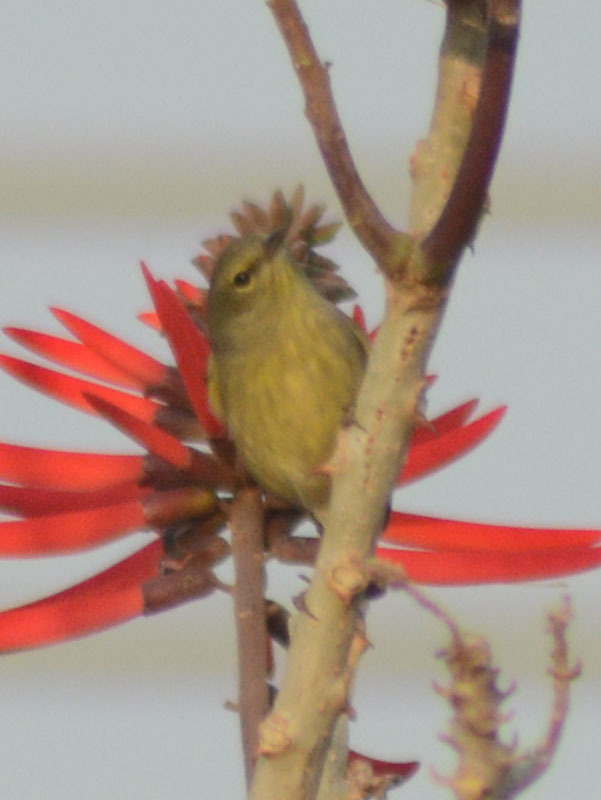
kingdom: Animalia
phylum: Chordata
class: Aves
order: Passeriformes
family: Parulidae
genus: Leiothlypis
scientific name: Leiothlypis celata
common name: Orange-crowned warbler
